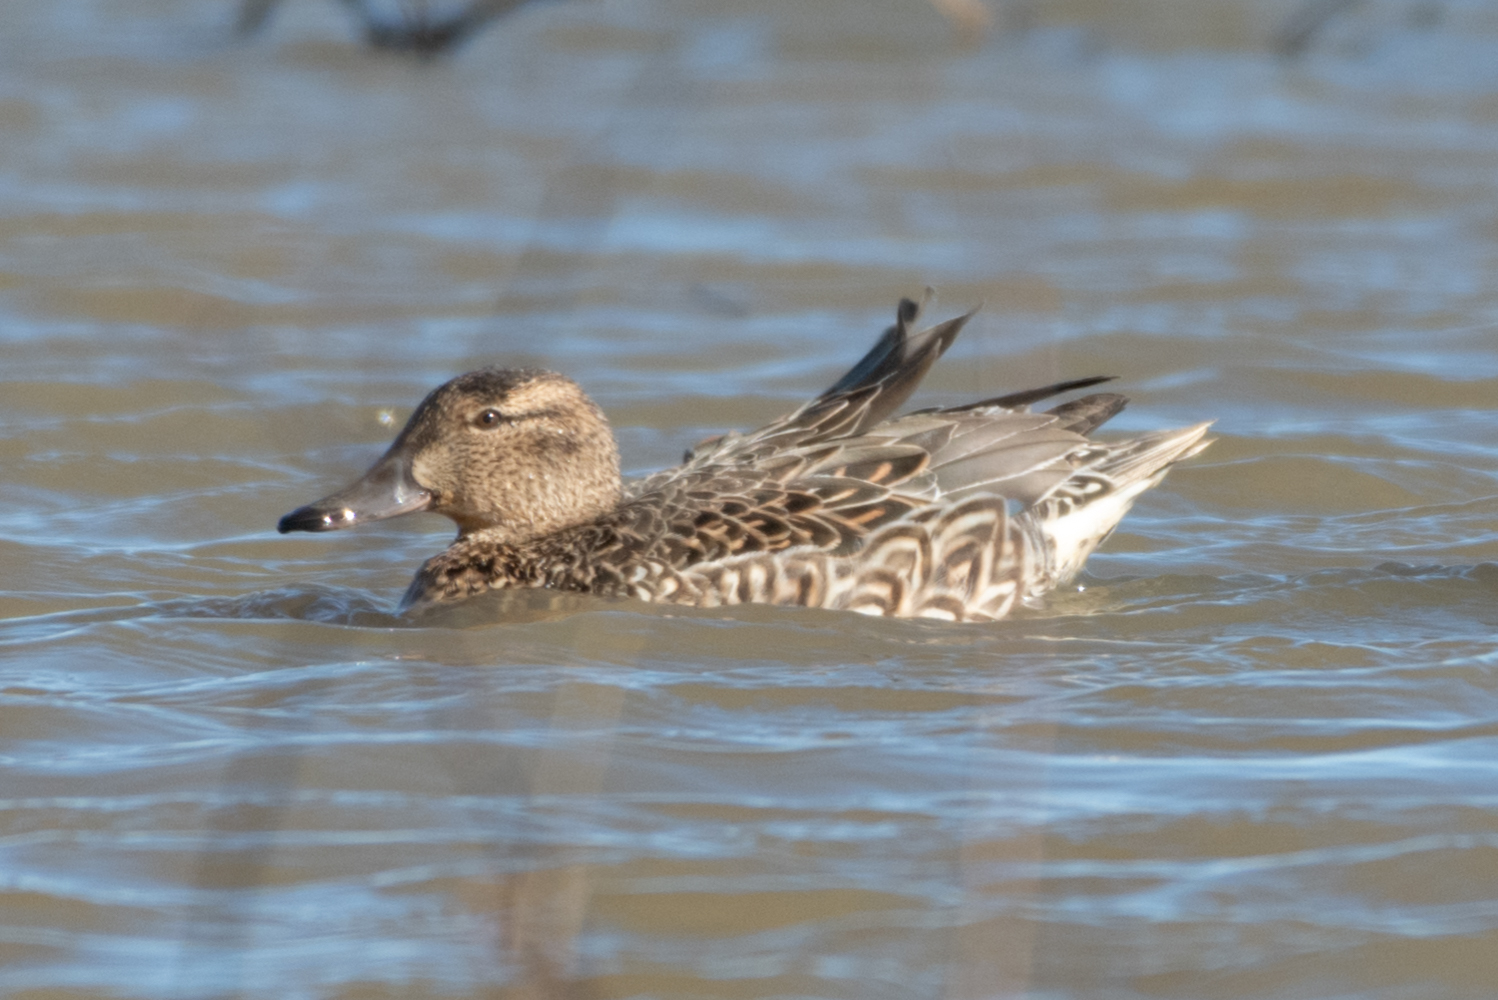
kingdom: Animalia
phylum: Chordata
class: Aves
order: Anseriformes
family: Anatidae
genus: Anas
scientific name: Anas crecca
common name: Eurasian teal
